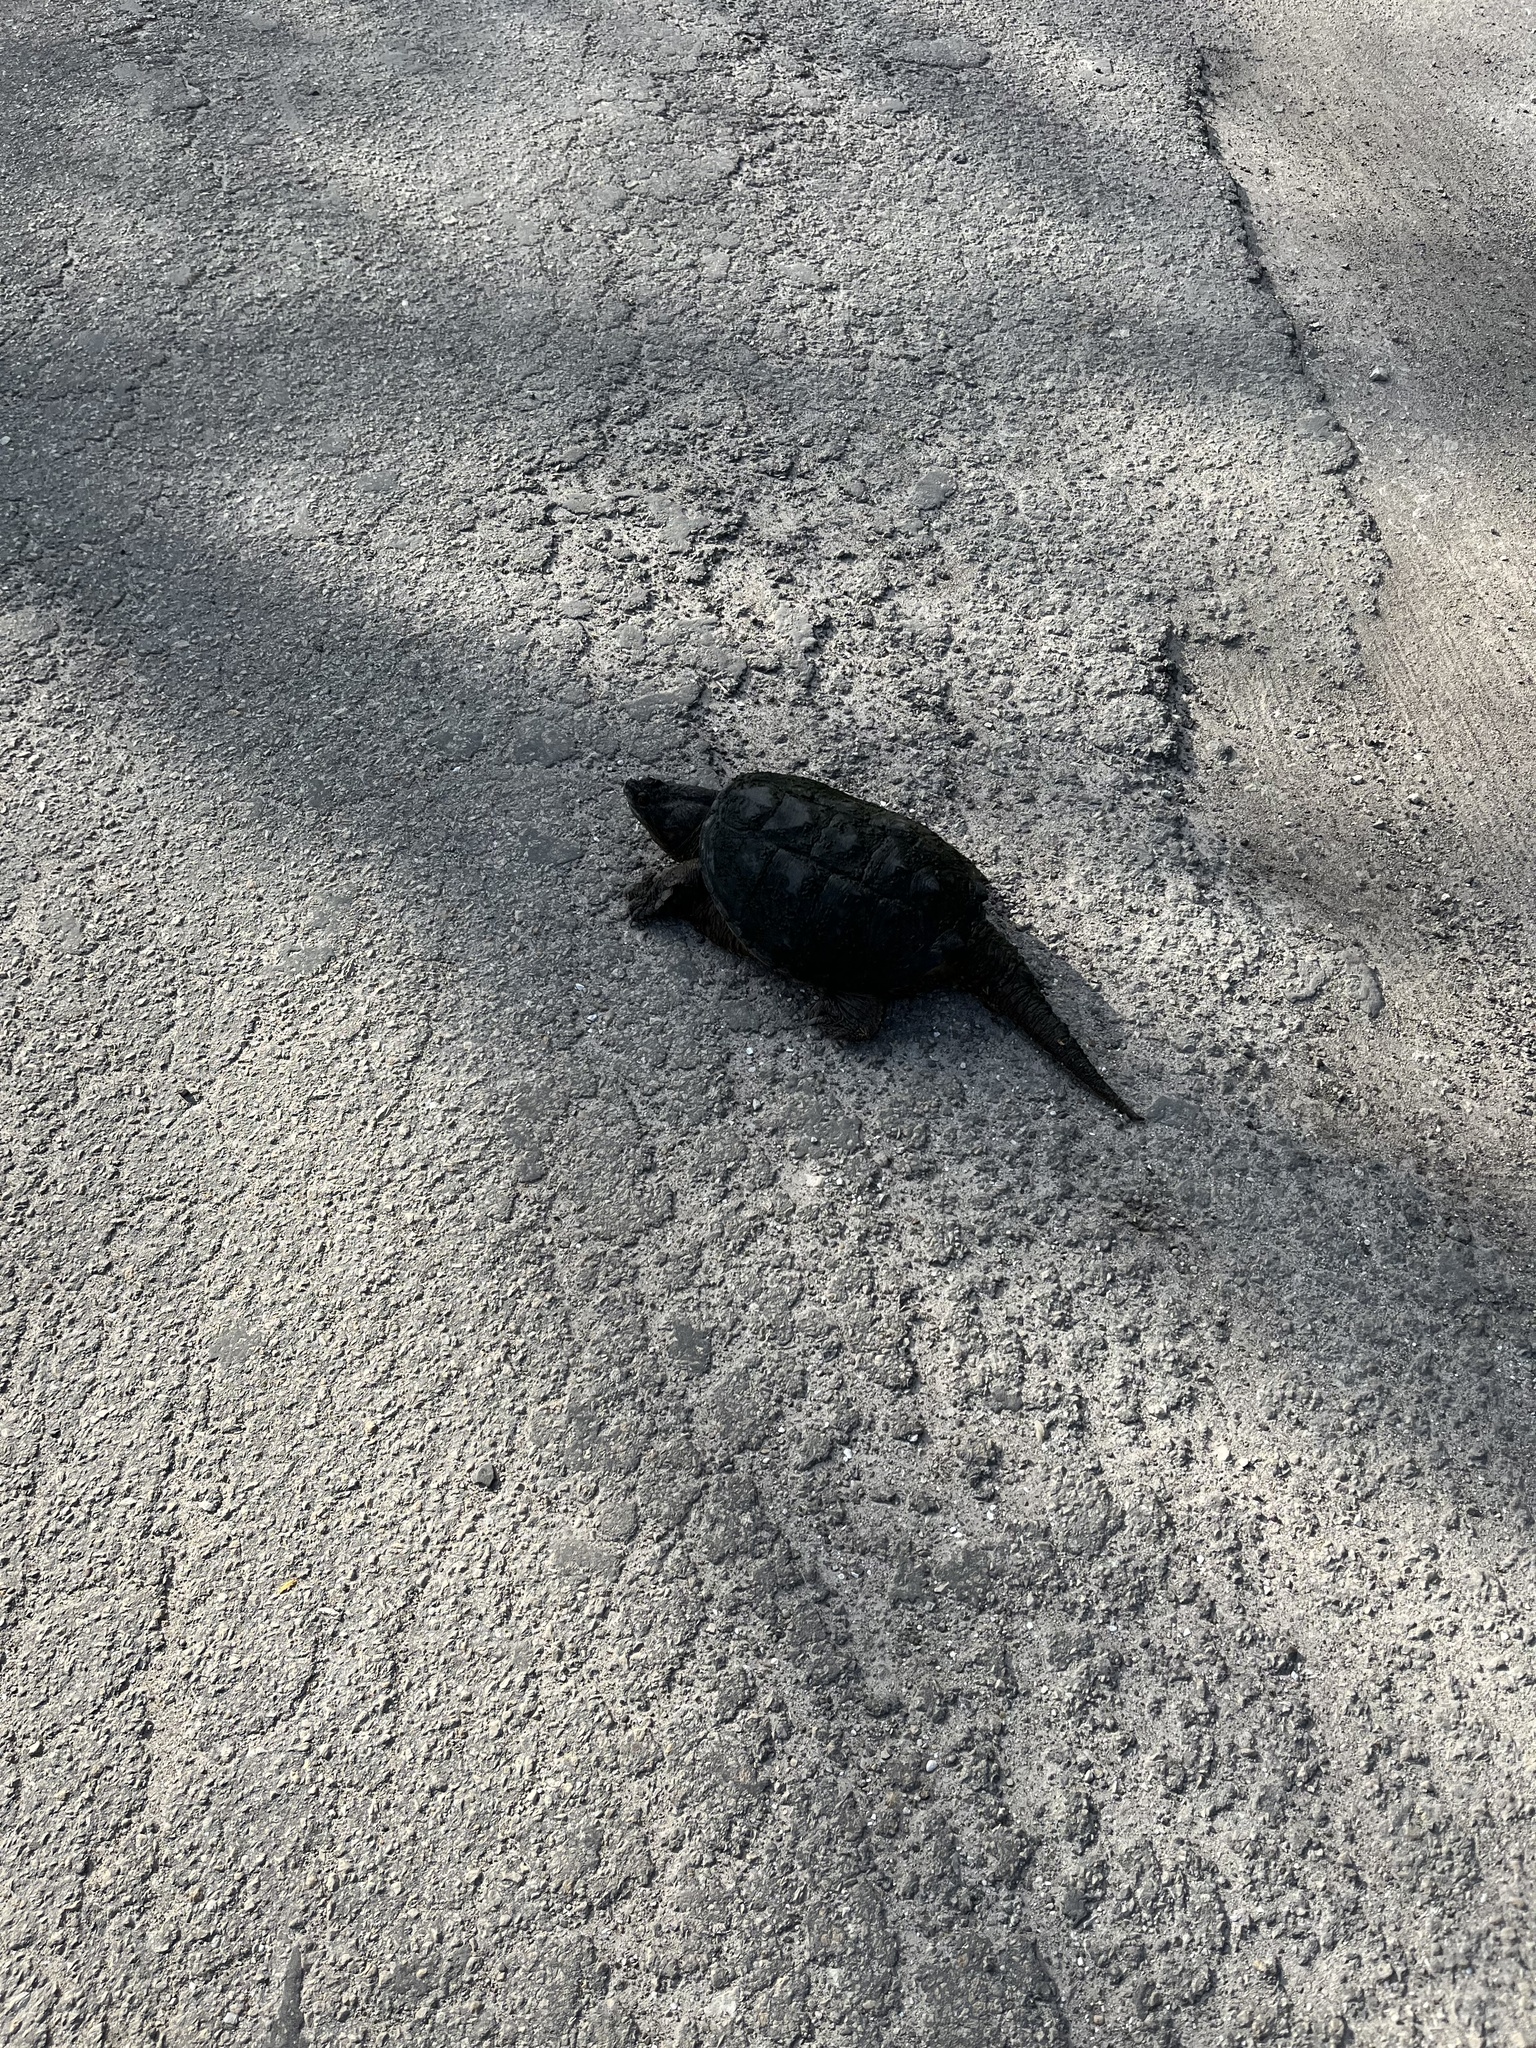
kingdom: Animalia
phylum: Chordata
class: Testudines
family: Chelydridae
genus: Chelydra
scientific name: Chelydra serpentina
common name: Common snapping turtle
